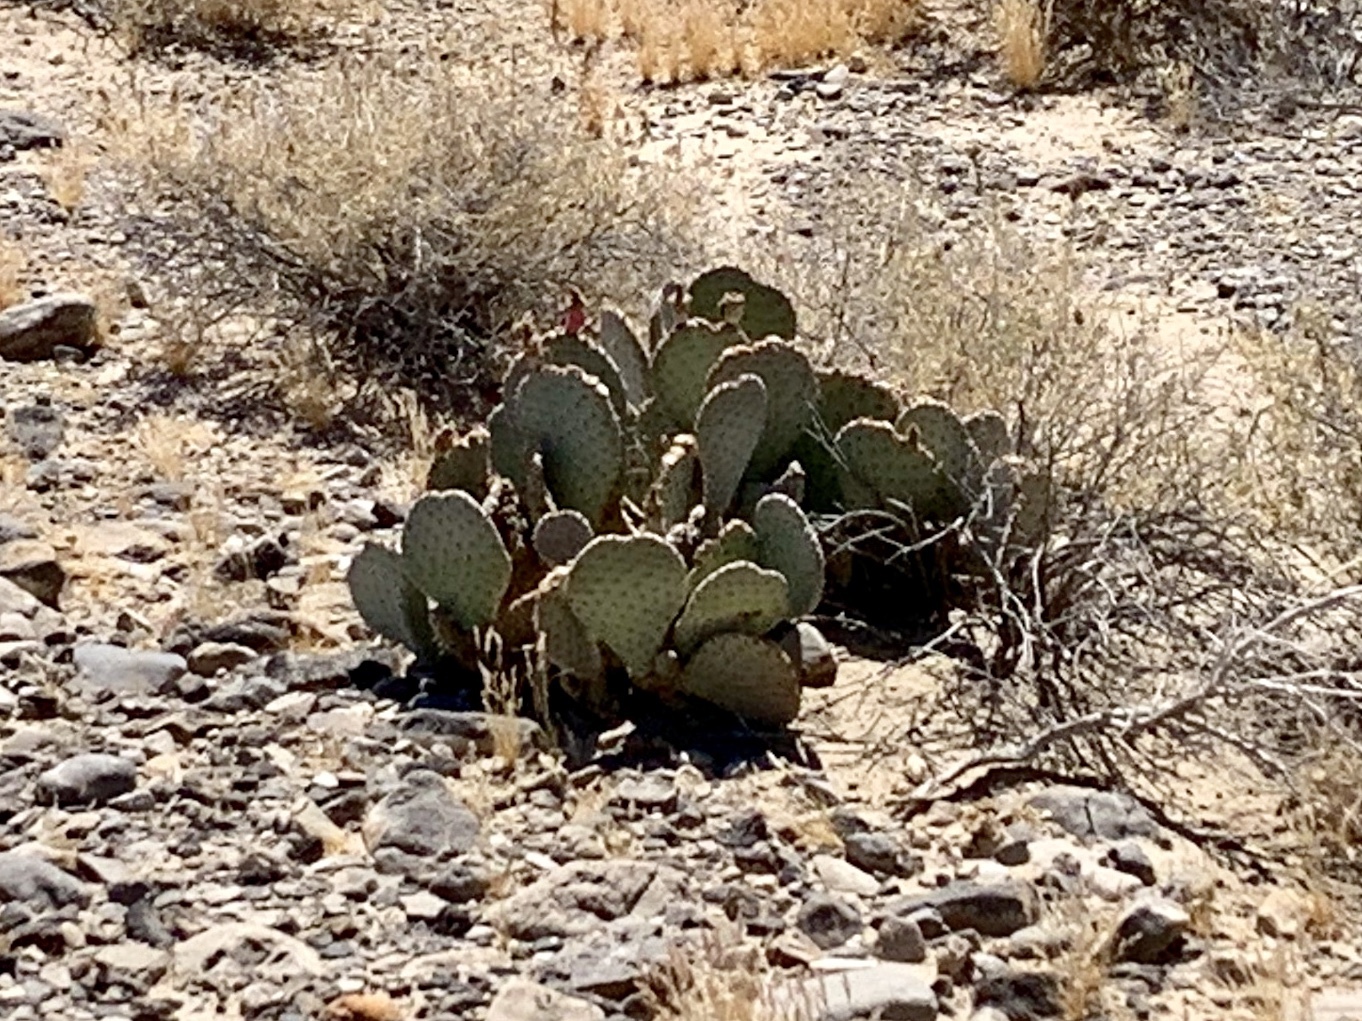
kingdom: Plantae
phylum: Tracheophyta
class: Magnoliopsida
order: Caryophyllales
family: Cactaceae
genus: Opuntia
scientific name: Opuntia basilaris
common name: Beavertail prickly-pear
